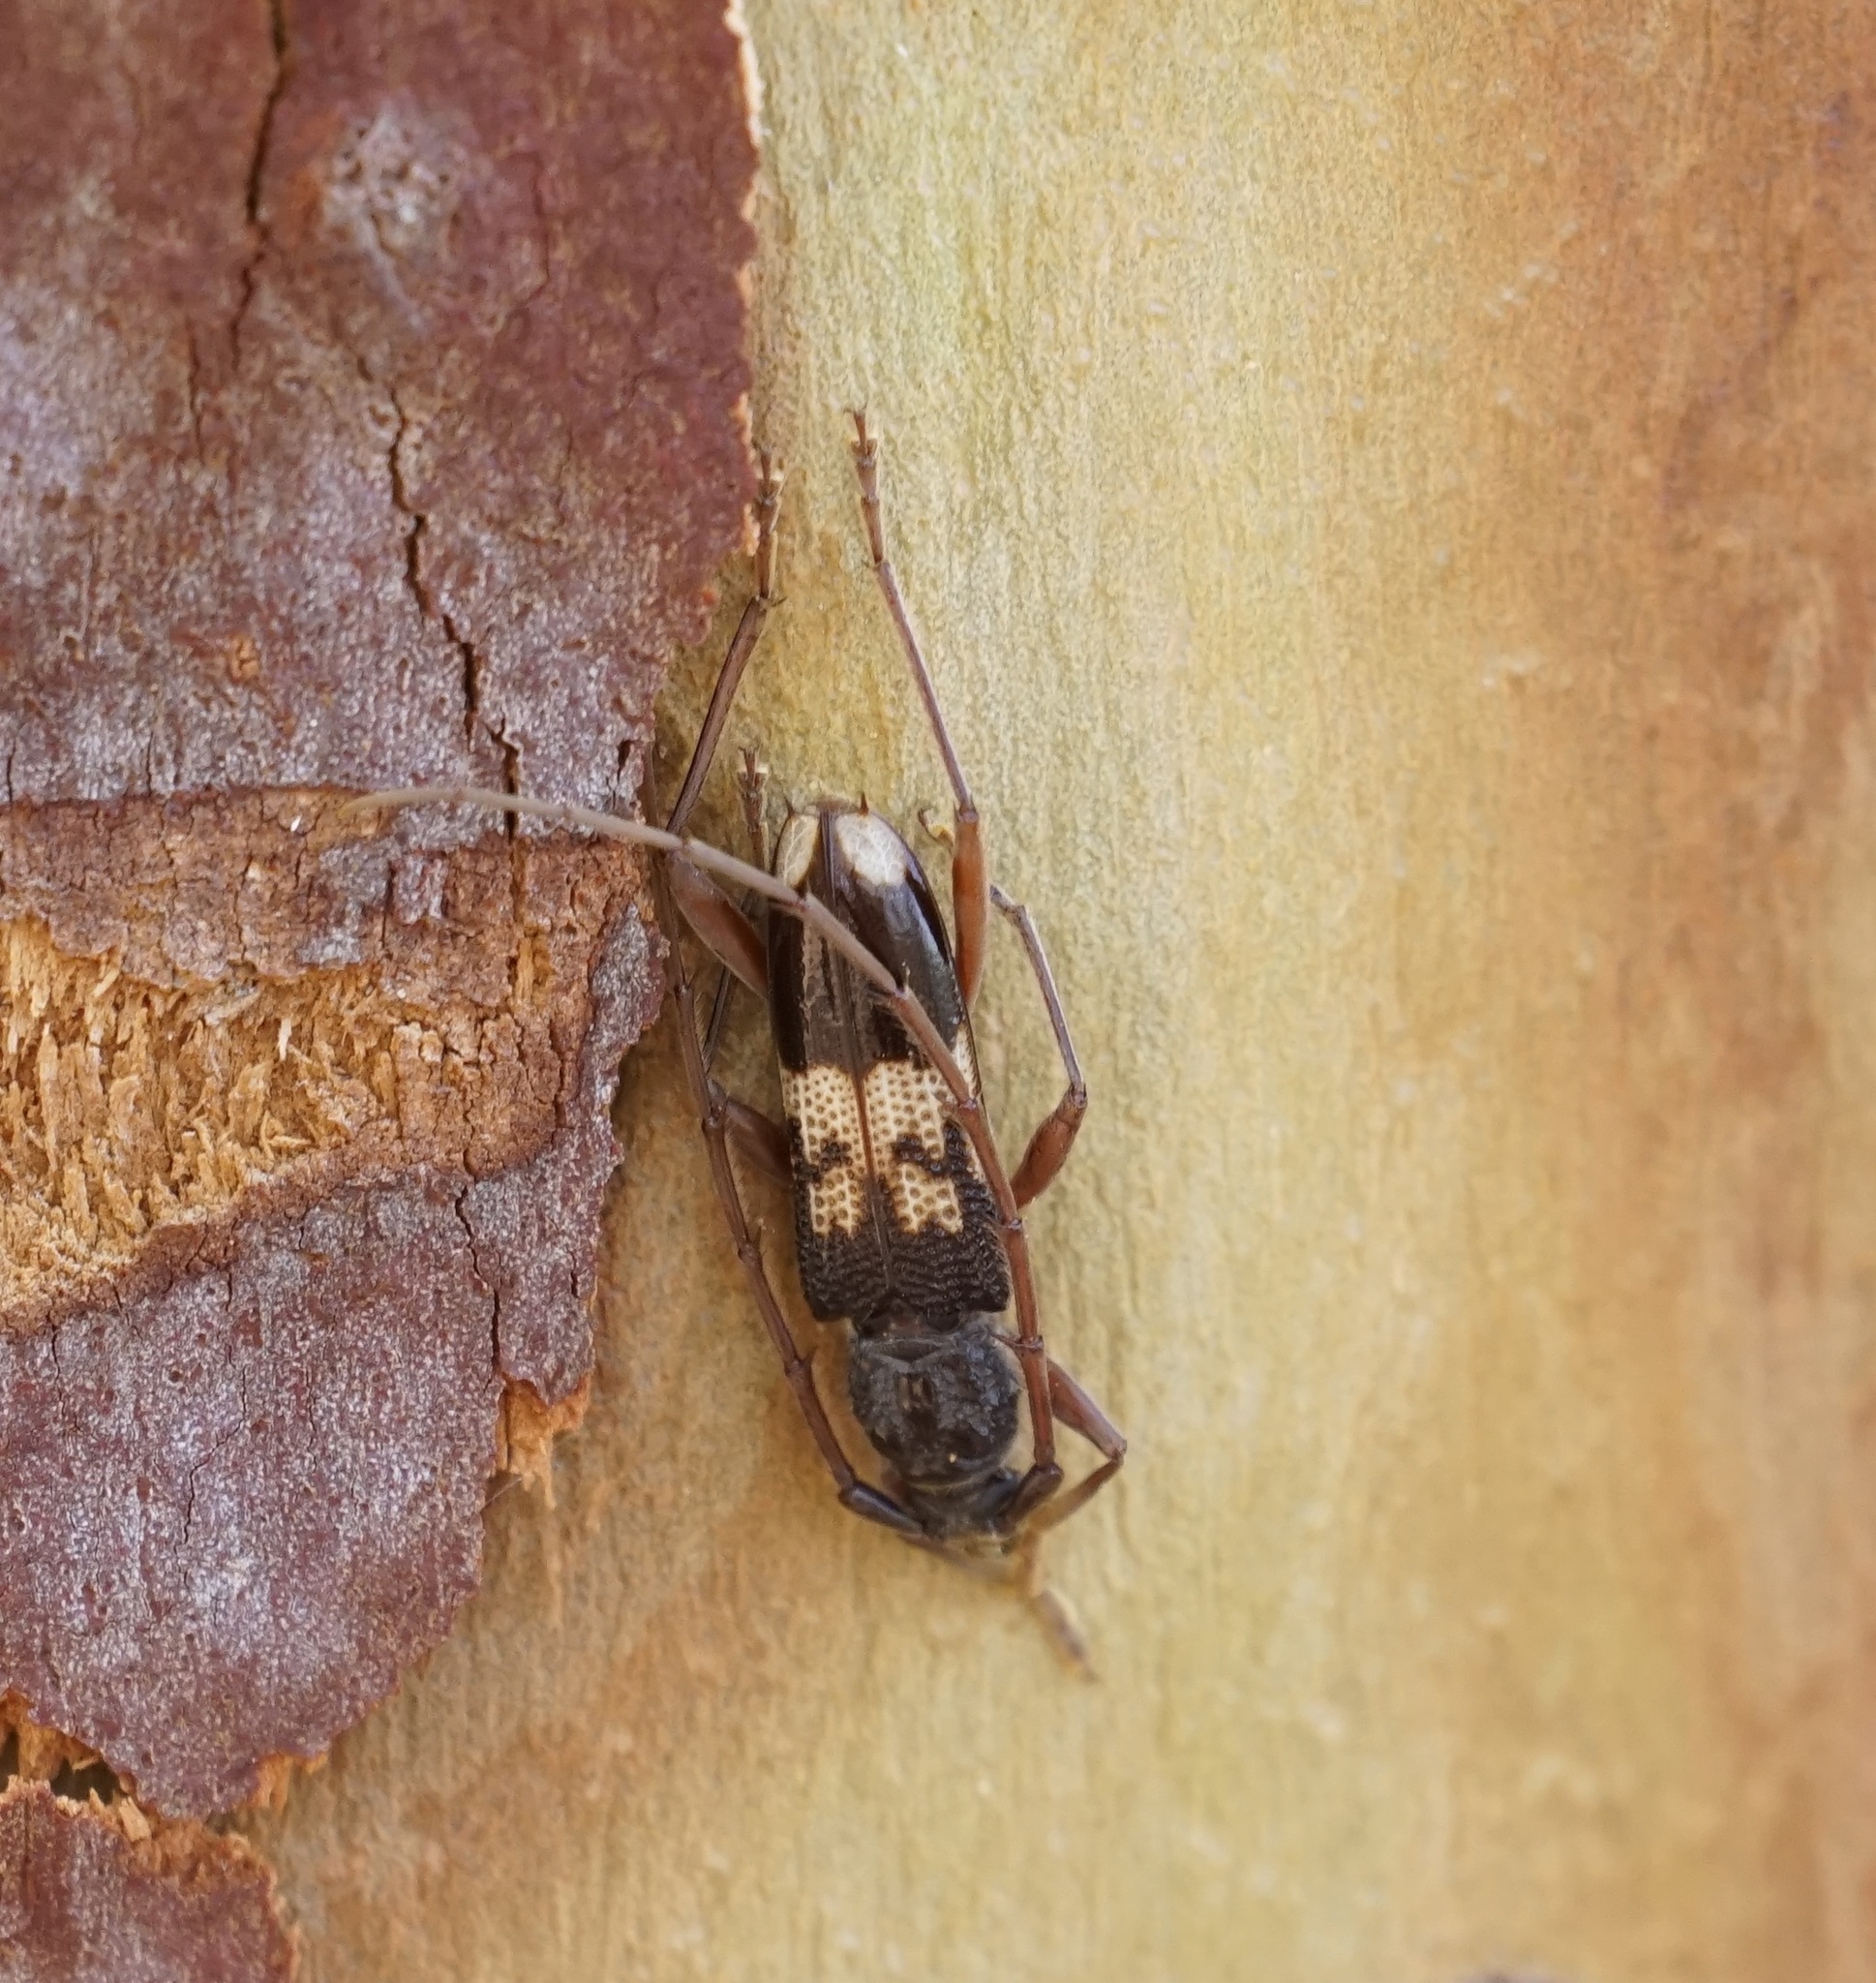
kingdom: Animalia
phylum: Arthropoda
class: Insecta
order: Coleoptera
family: Cerambycidae
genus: Phoracantha
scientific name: Phoracantha semipunctata
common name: Eucalyptus longhorn borer
